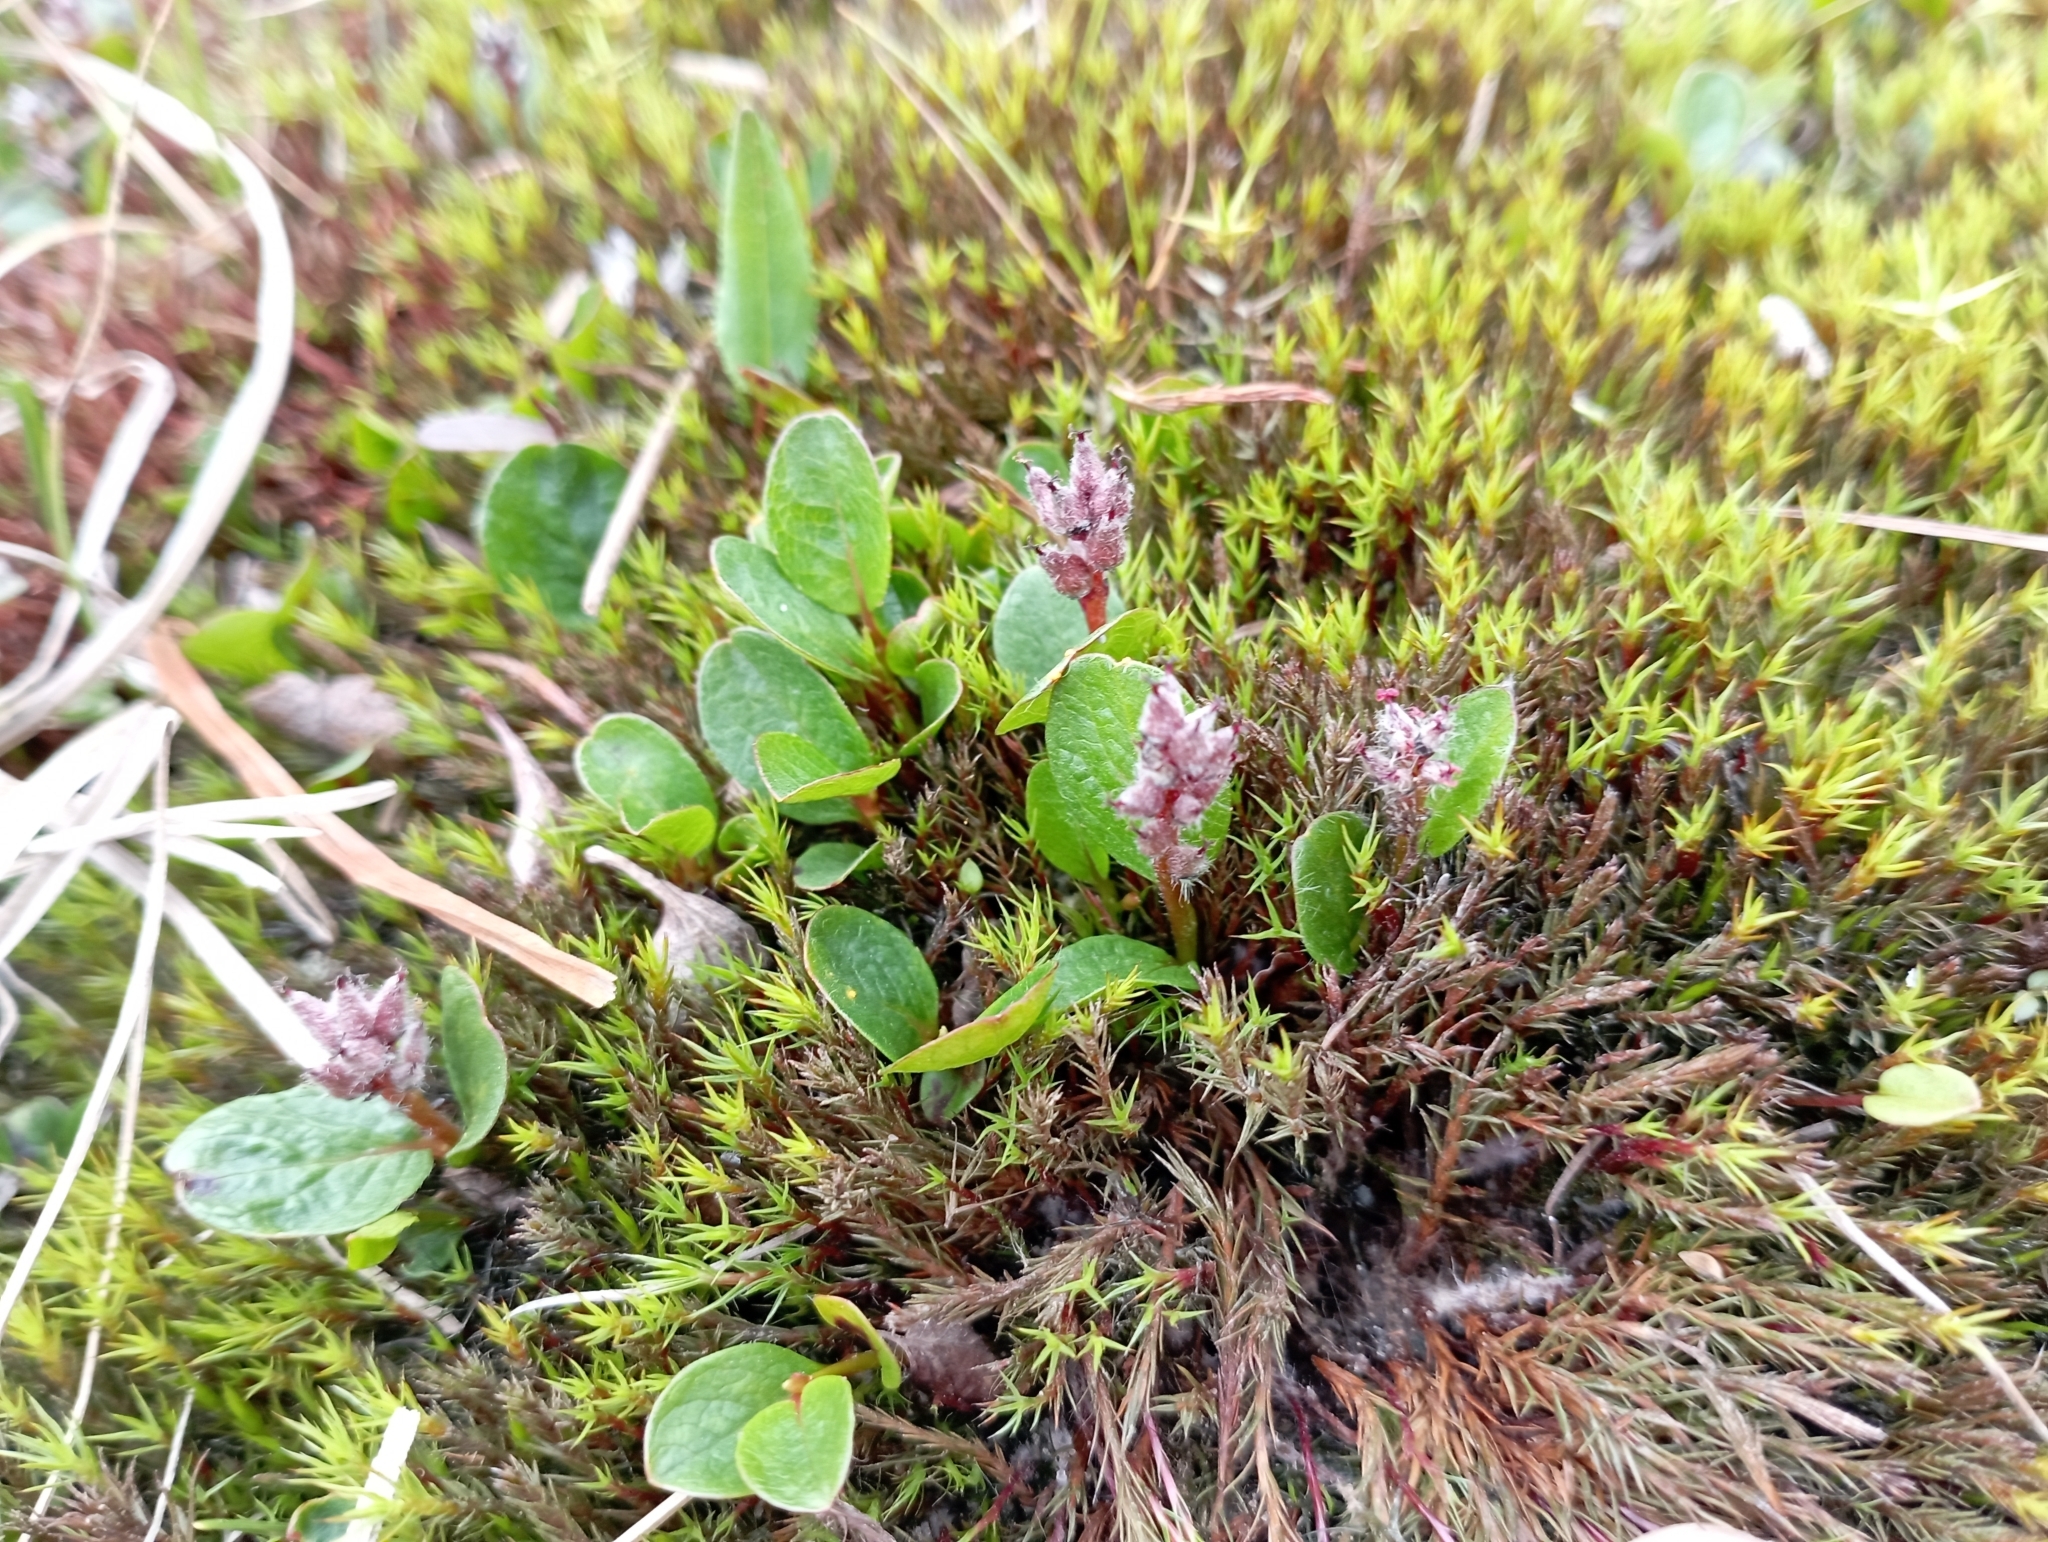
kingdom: Plantae
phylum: Tracheophyta
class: Magnoliopsida
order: Malpighiales
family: Salicaceae
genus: Salix
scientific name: Salix polaris
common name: Polar willow
